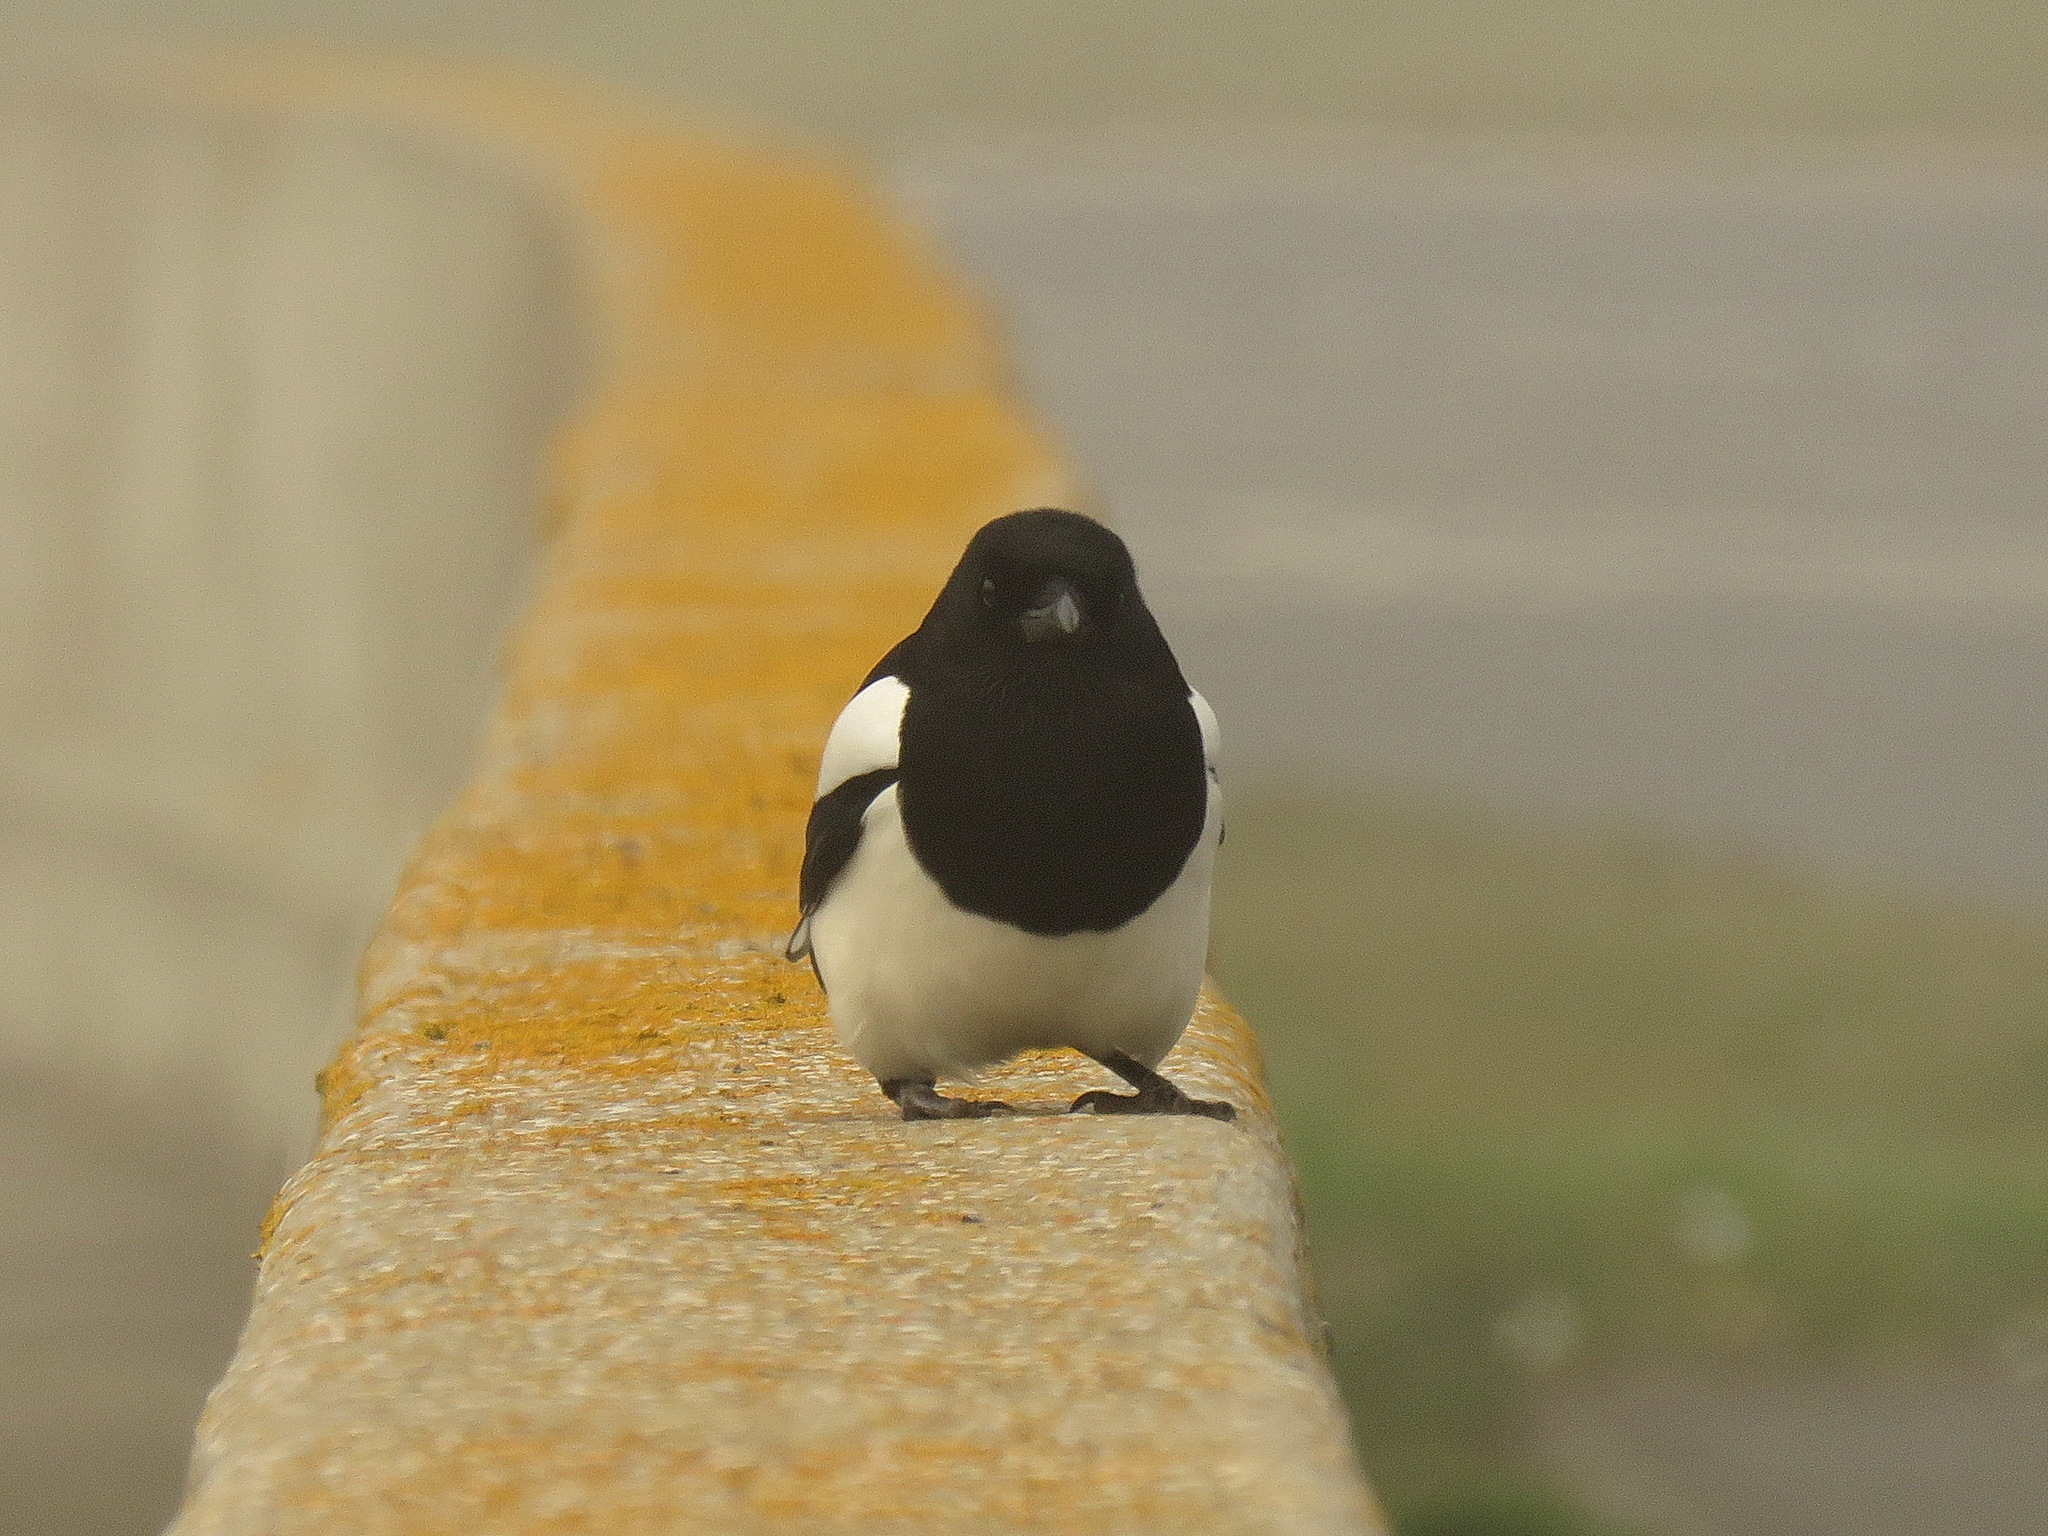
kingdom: Animalia
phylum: Chordata
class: Aves
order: Passeriformes
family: Corvidae
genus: Pica
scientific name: Pica pica
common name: Eurasian magpie
